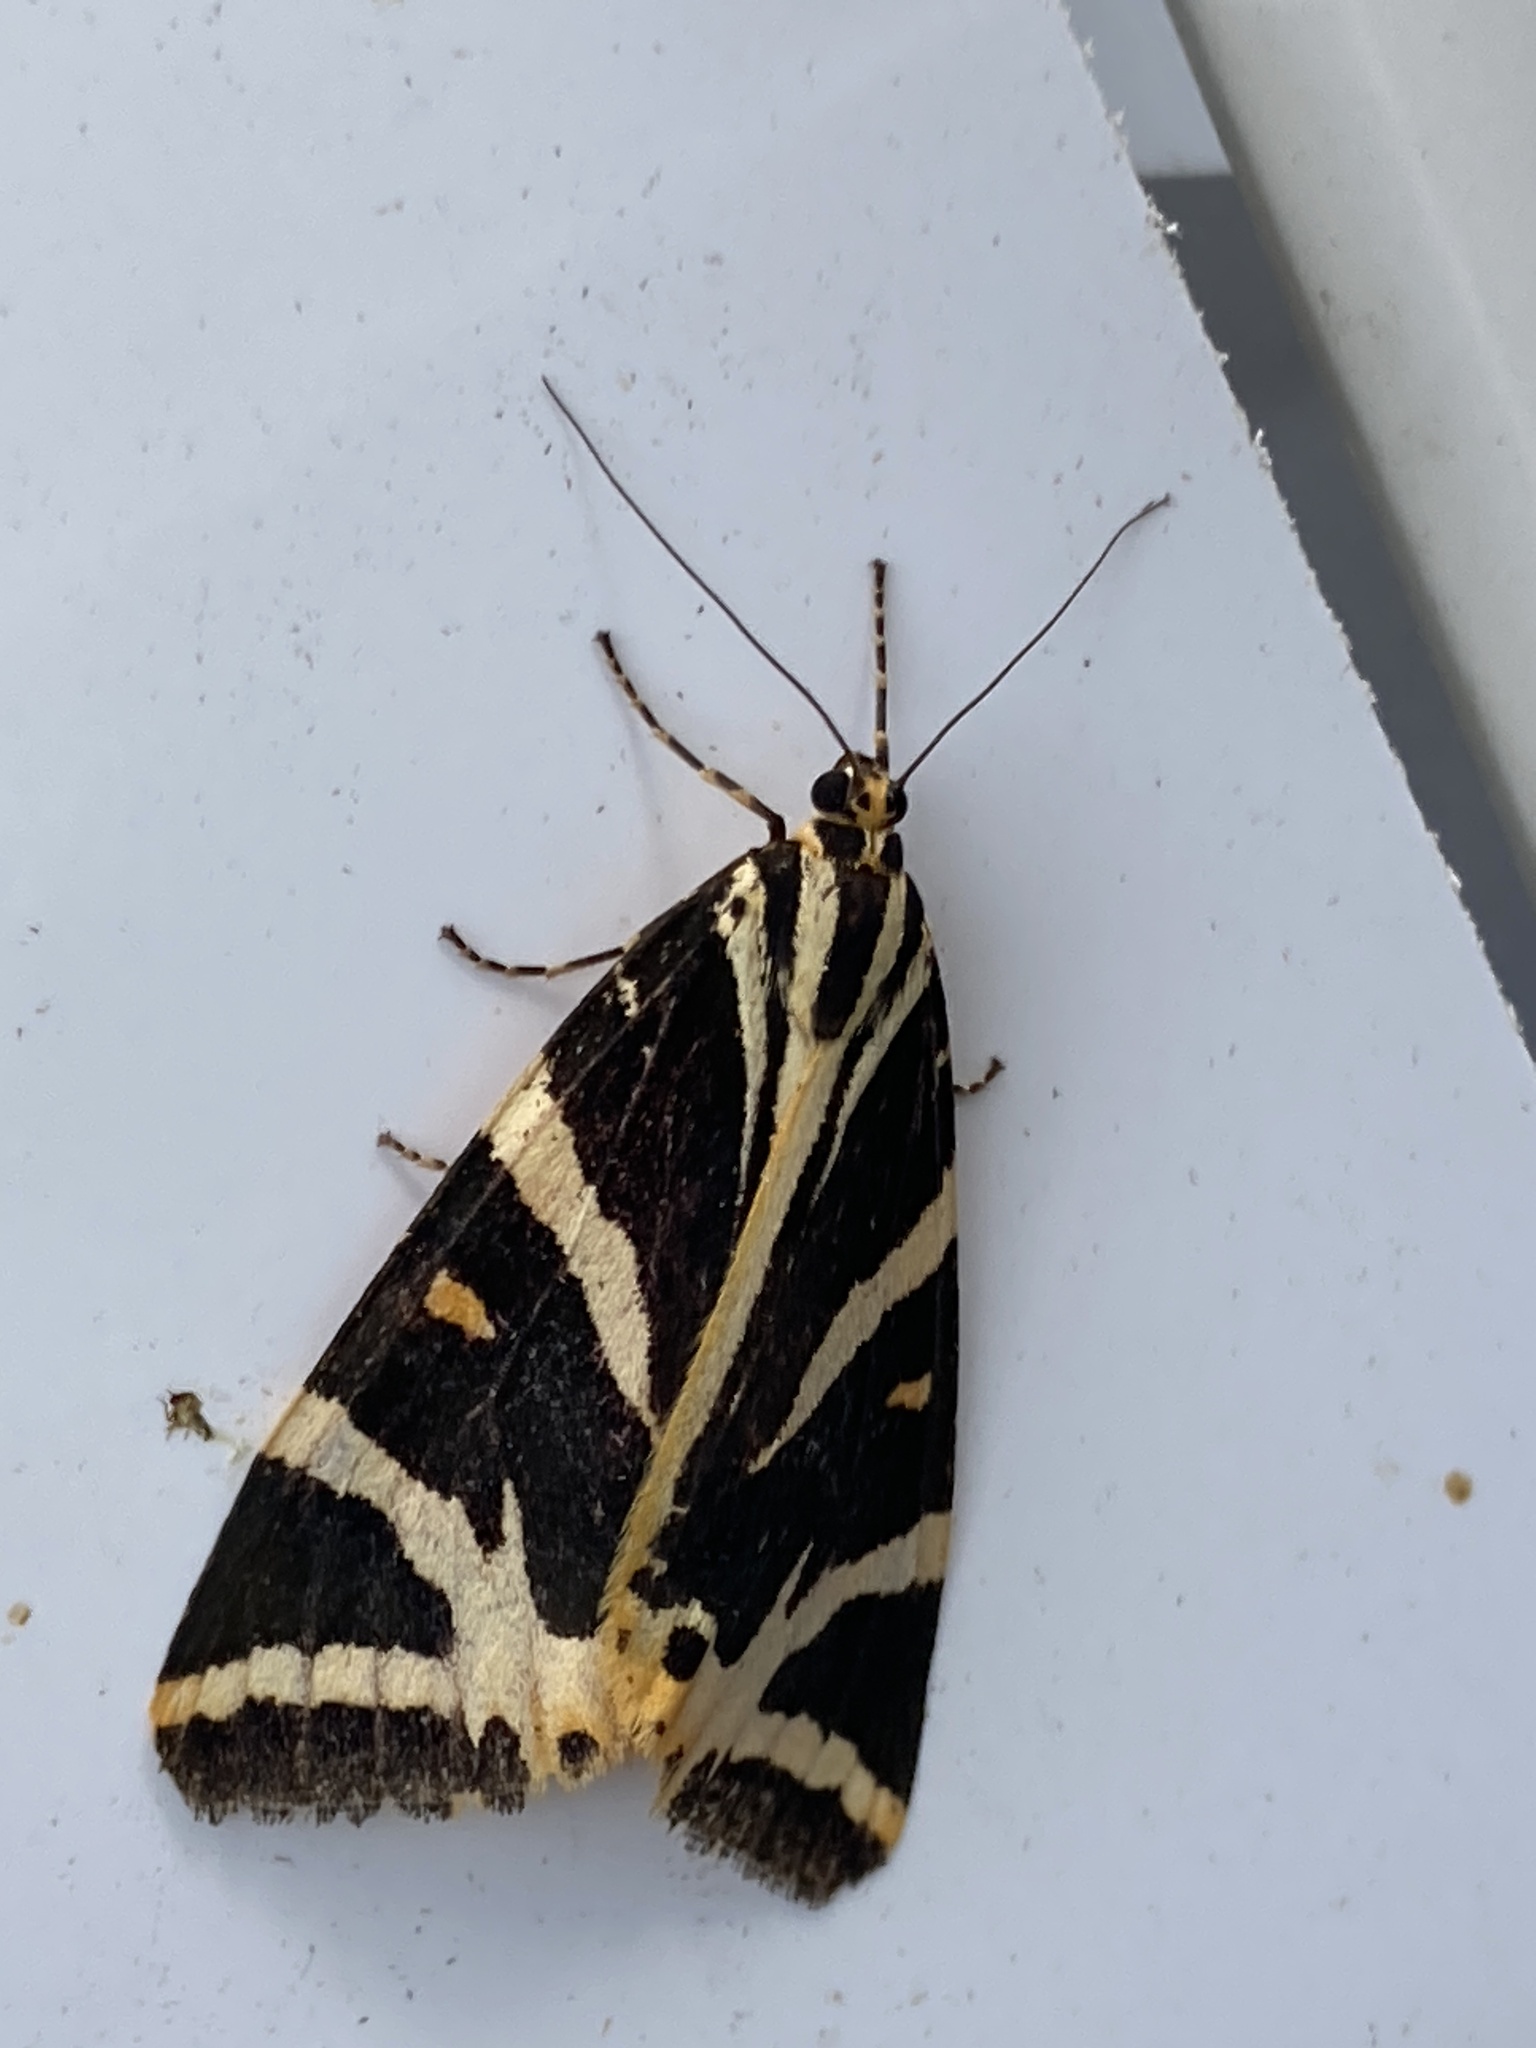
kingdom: Animalia
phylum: Arthropoda
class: Insecta
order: Lepidoptera
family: Erebidae
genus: Euplagia
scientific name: Euplagia quadripunctaria
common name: Jersey tiger
